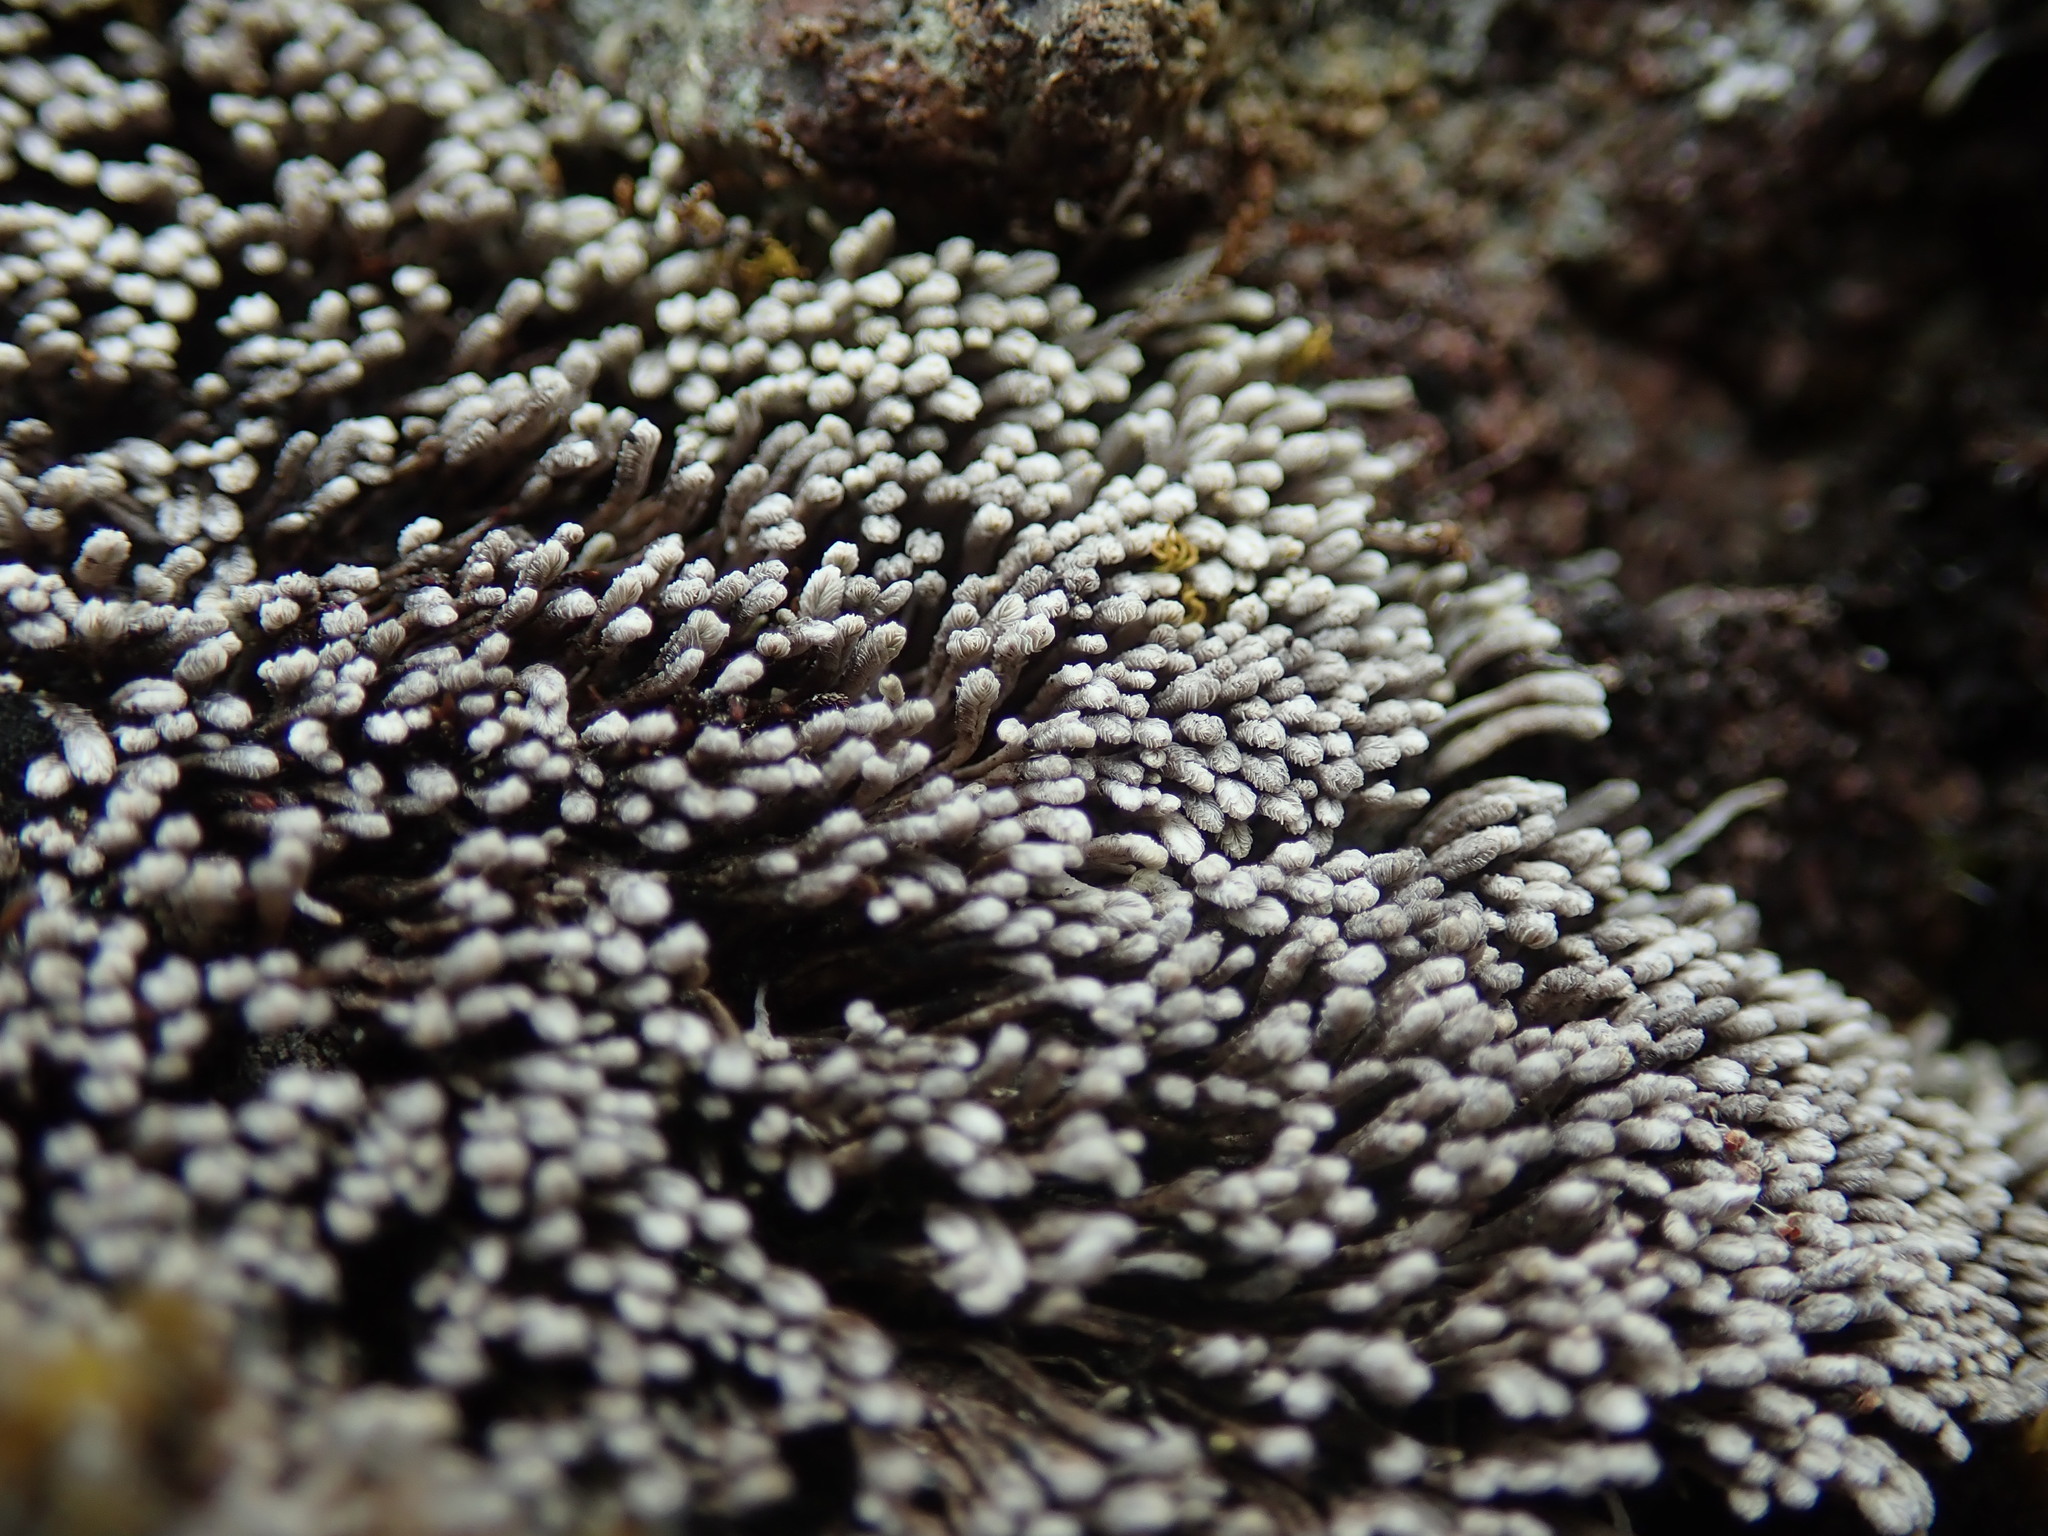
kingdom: Plantae
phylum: Marchantiophyta
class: Jungermanniopsida
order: Jungermanniales
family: Gymnomitriaceae
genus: Gymnomitrion
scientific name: Gymnomitrion obtusum
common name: White frostwort
